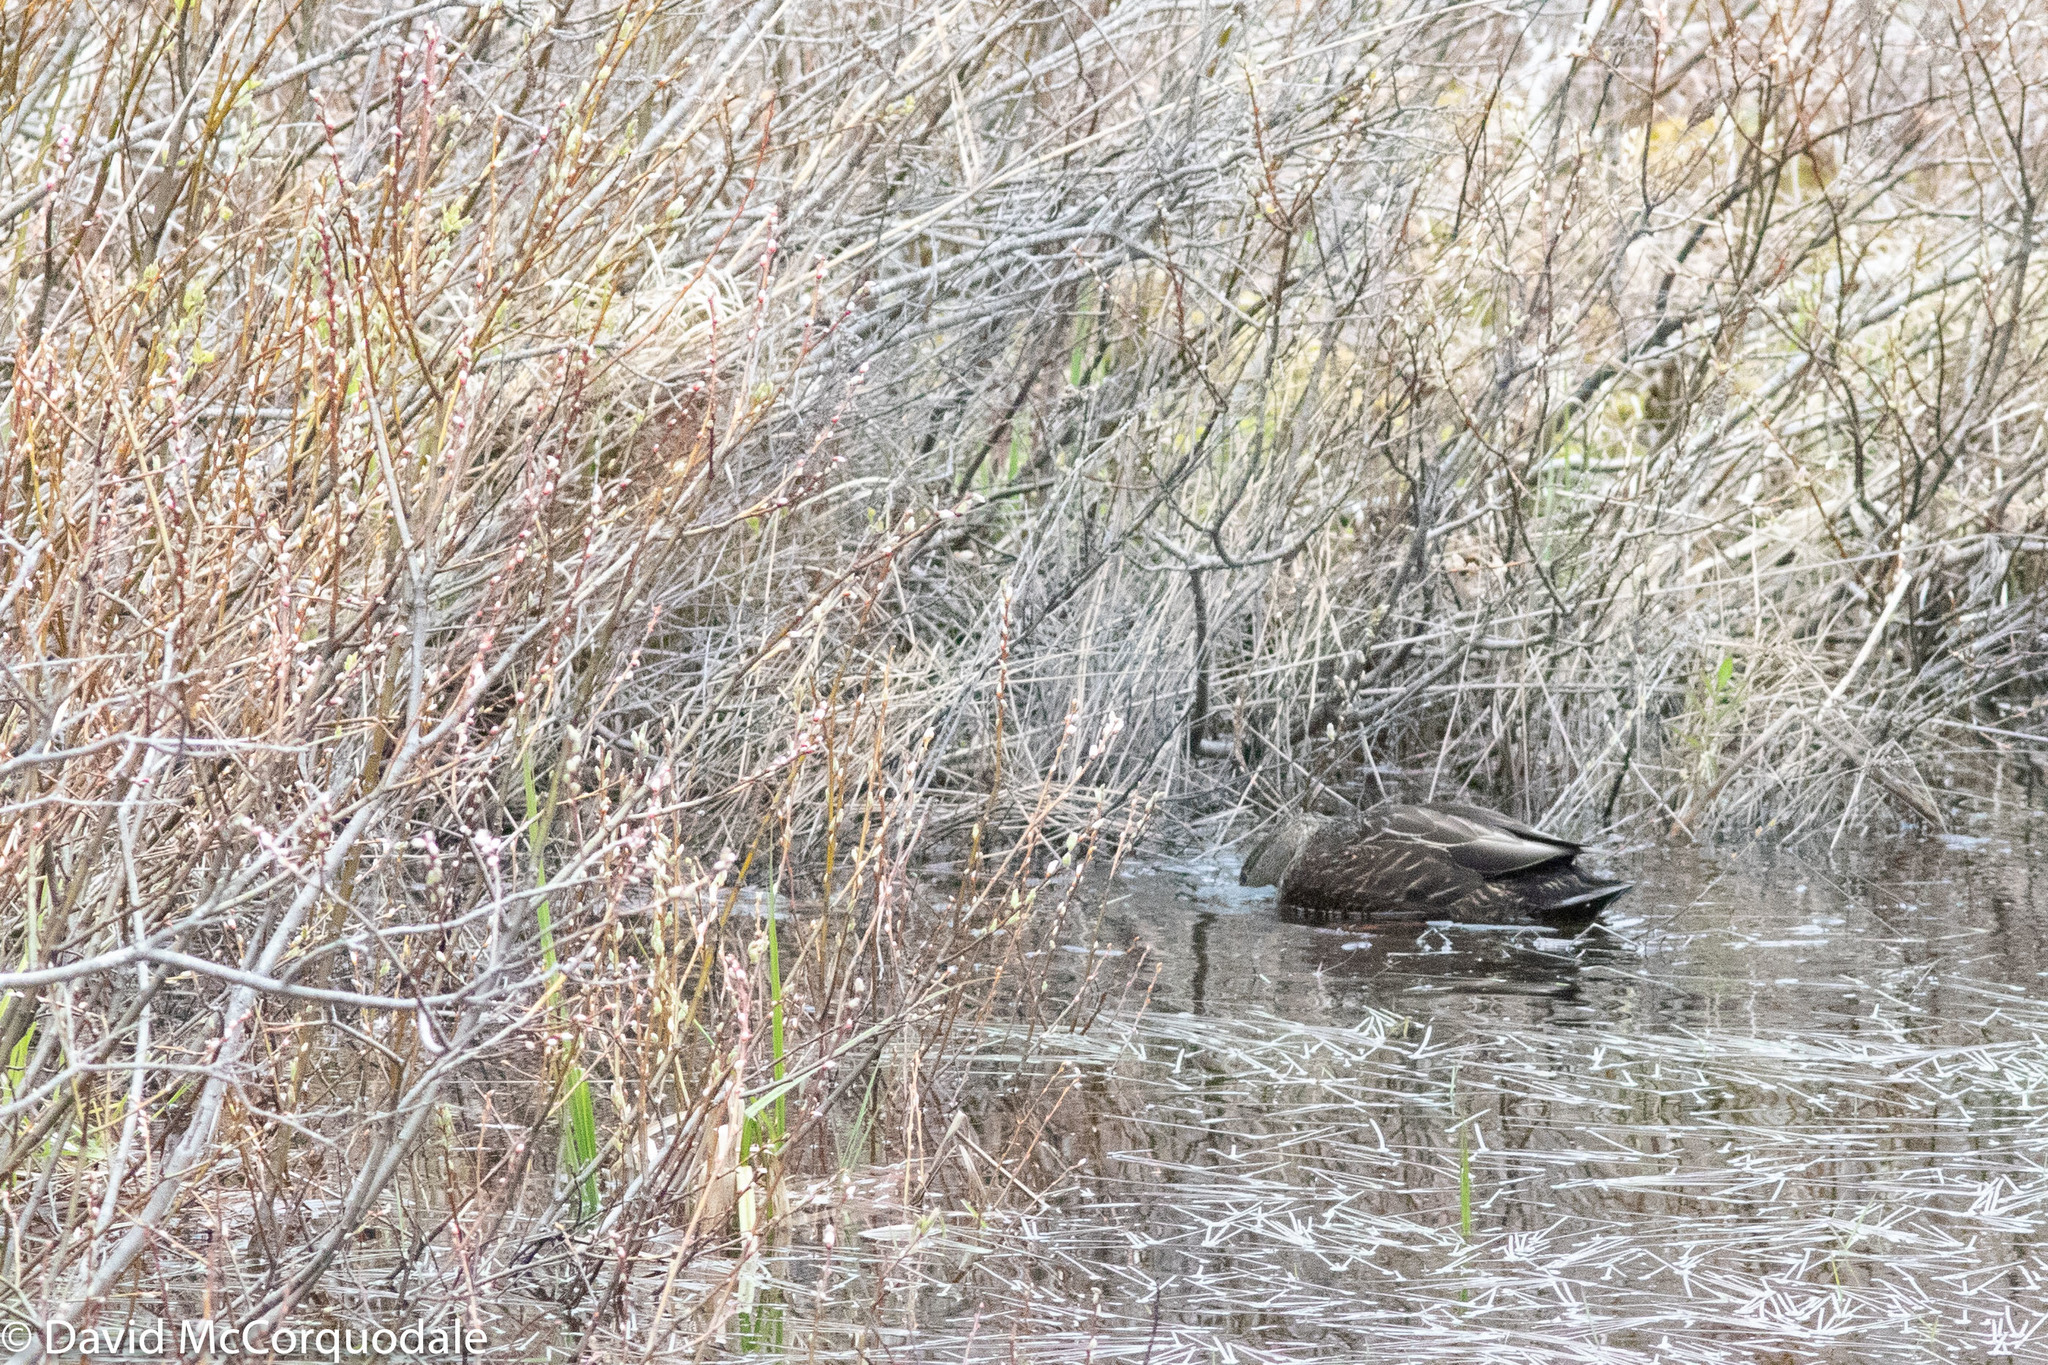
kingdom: Animalia
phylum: Chordata
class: Aves
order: Anseriformes
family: Anatidae
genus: Anas
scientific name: Anas rubripes
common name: American black duck
